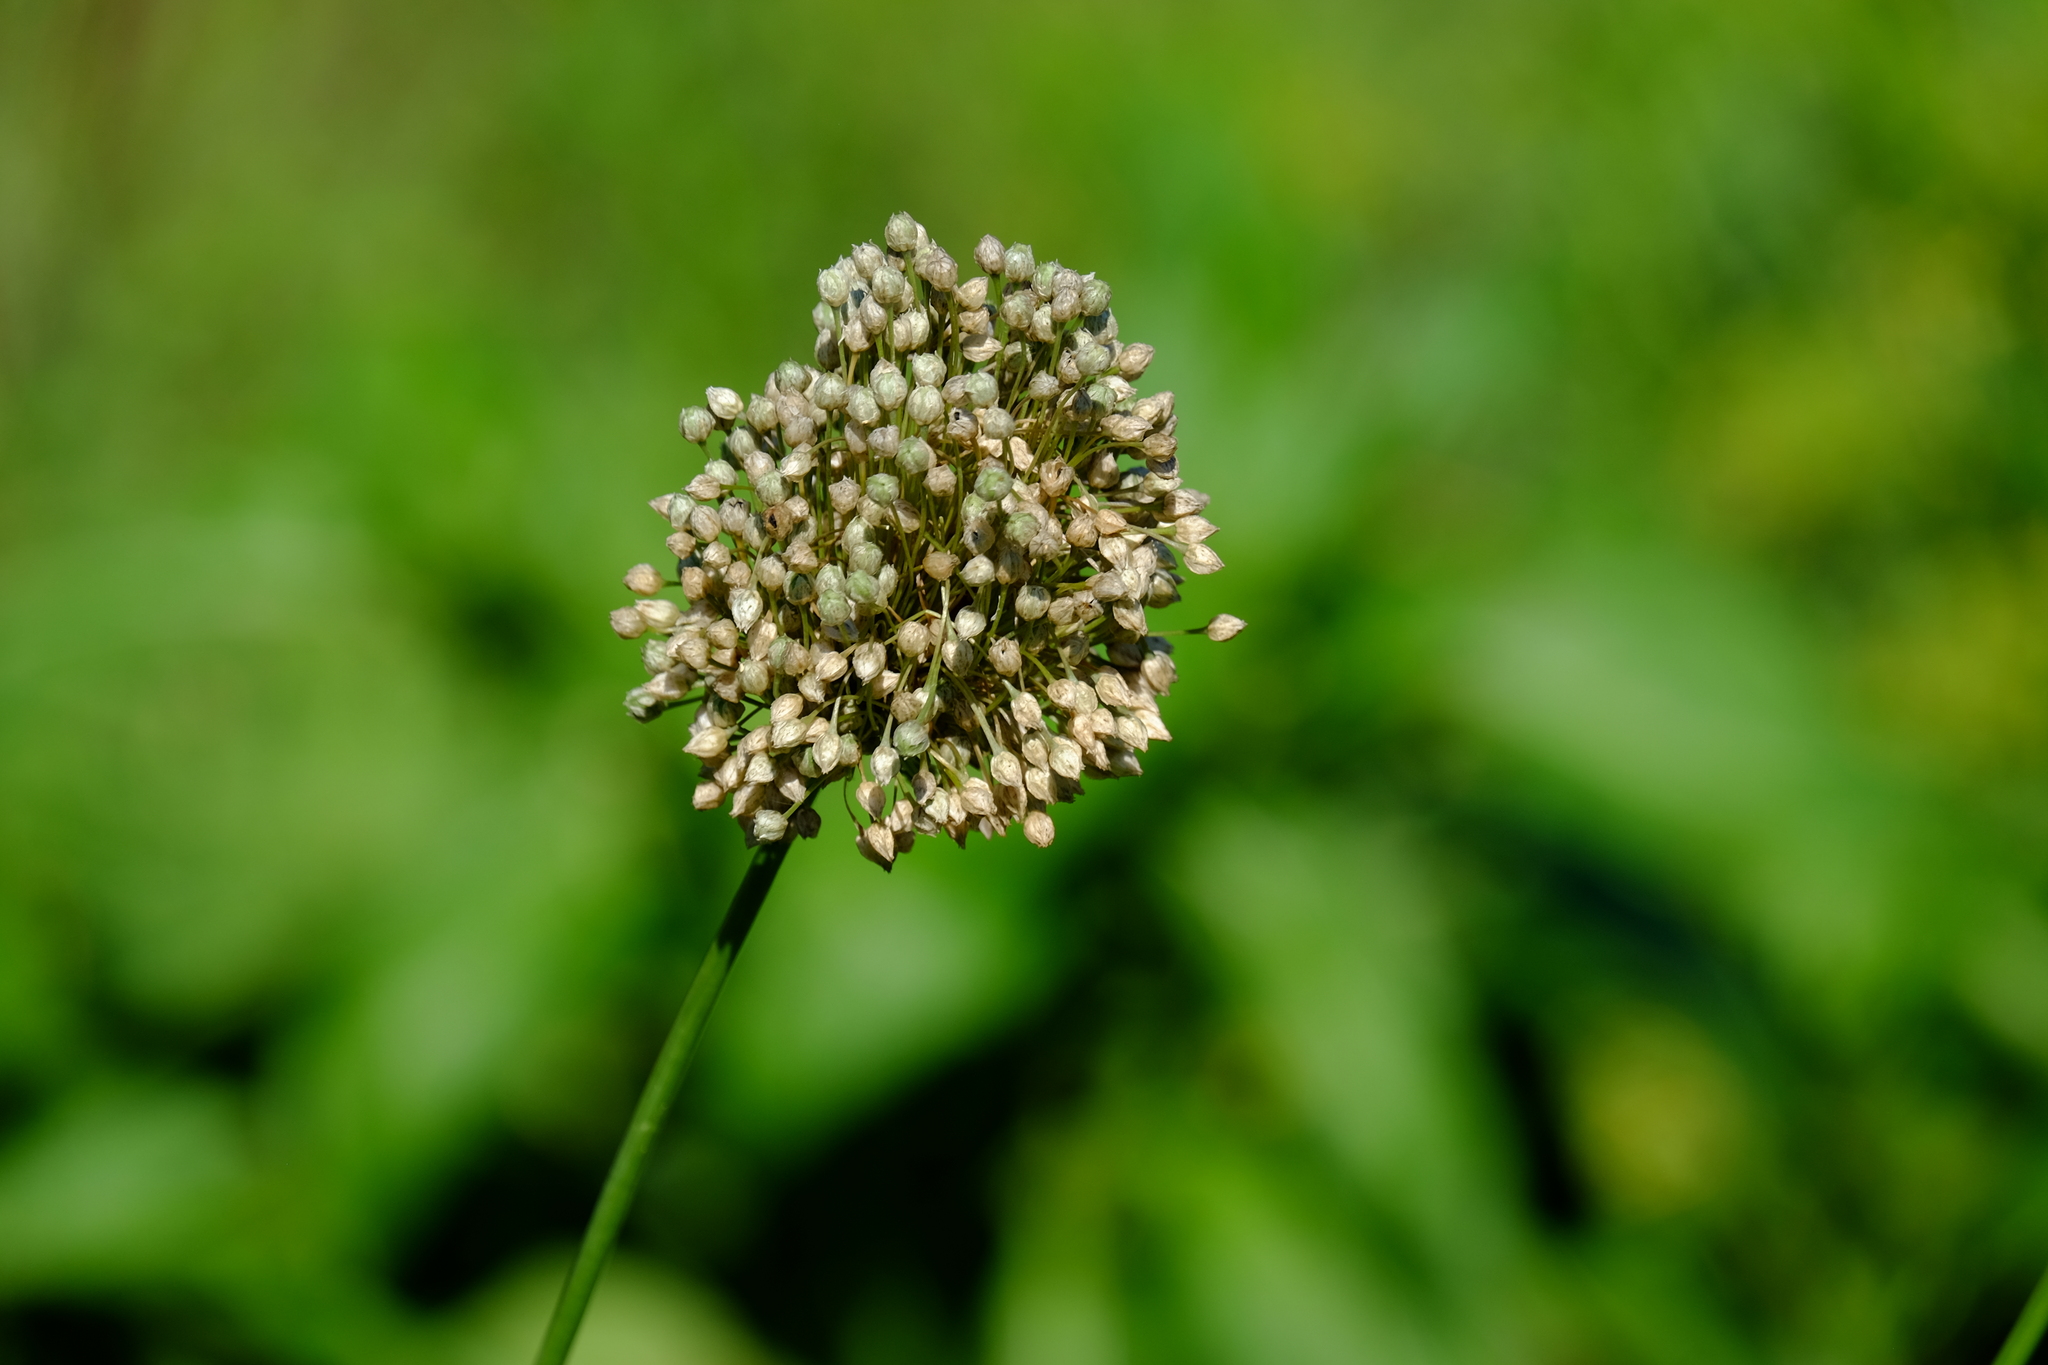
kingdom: Plantae
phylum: Tracheophyta
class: Liliopsida
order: Asparagales
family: Amaryllidaceae
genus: Allium
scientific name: Allium rotundum
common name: Sand leek
